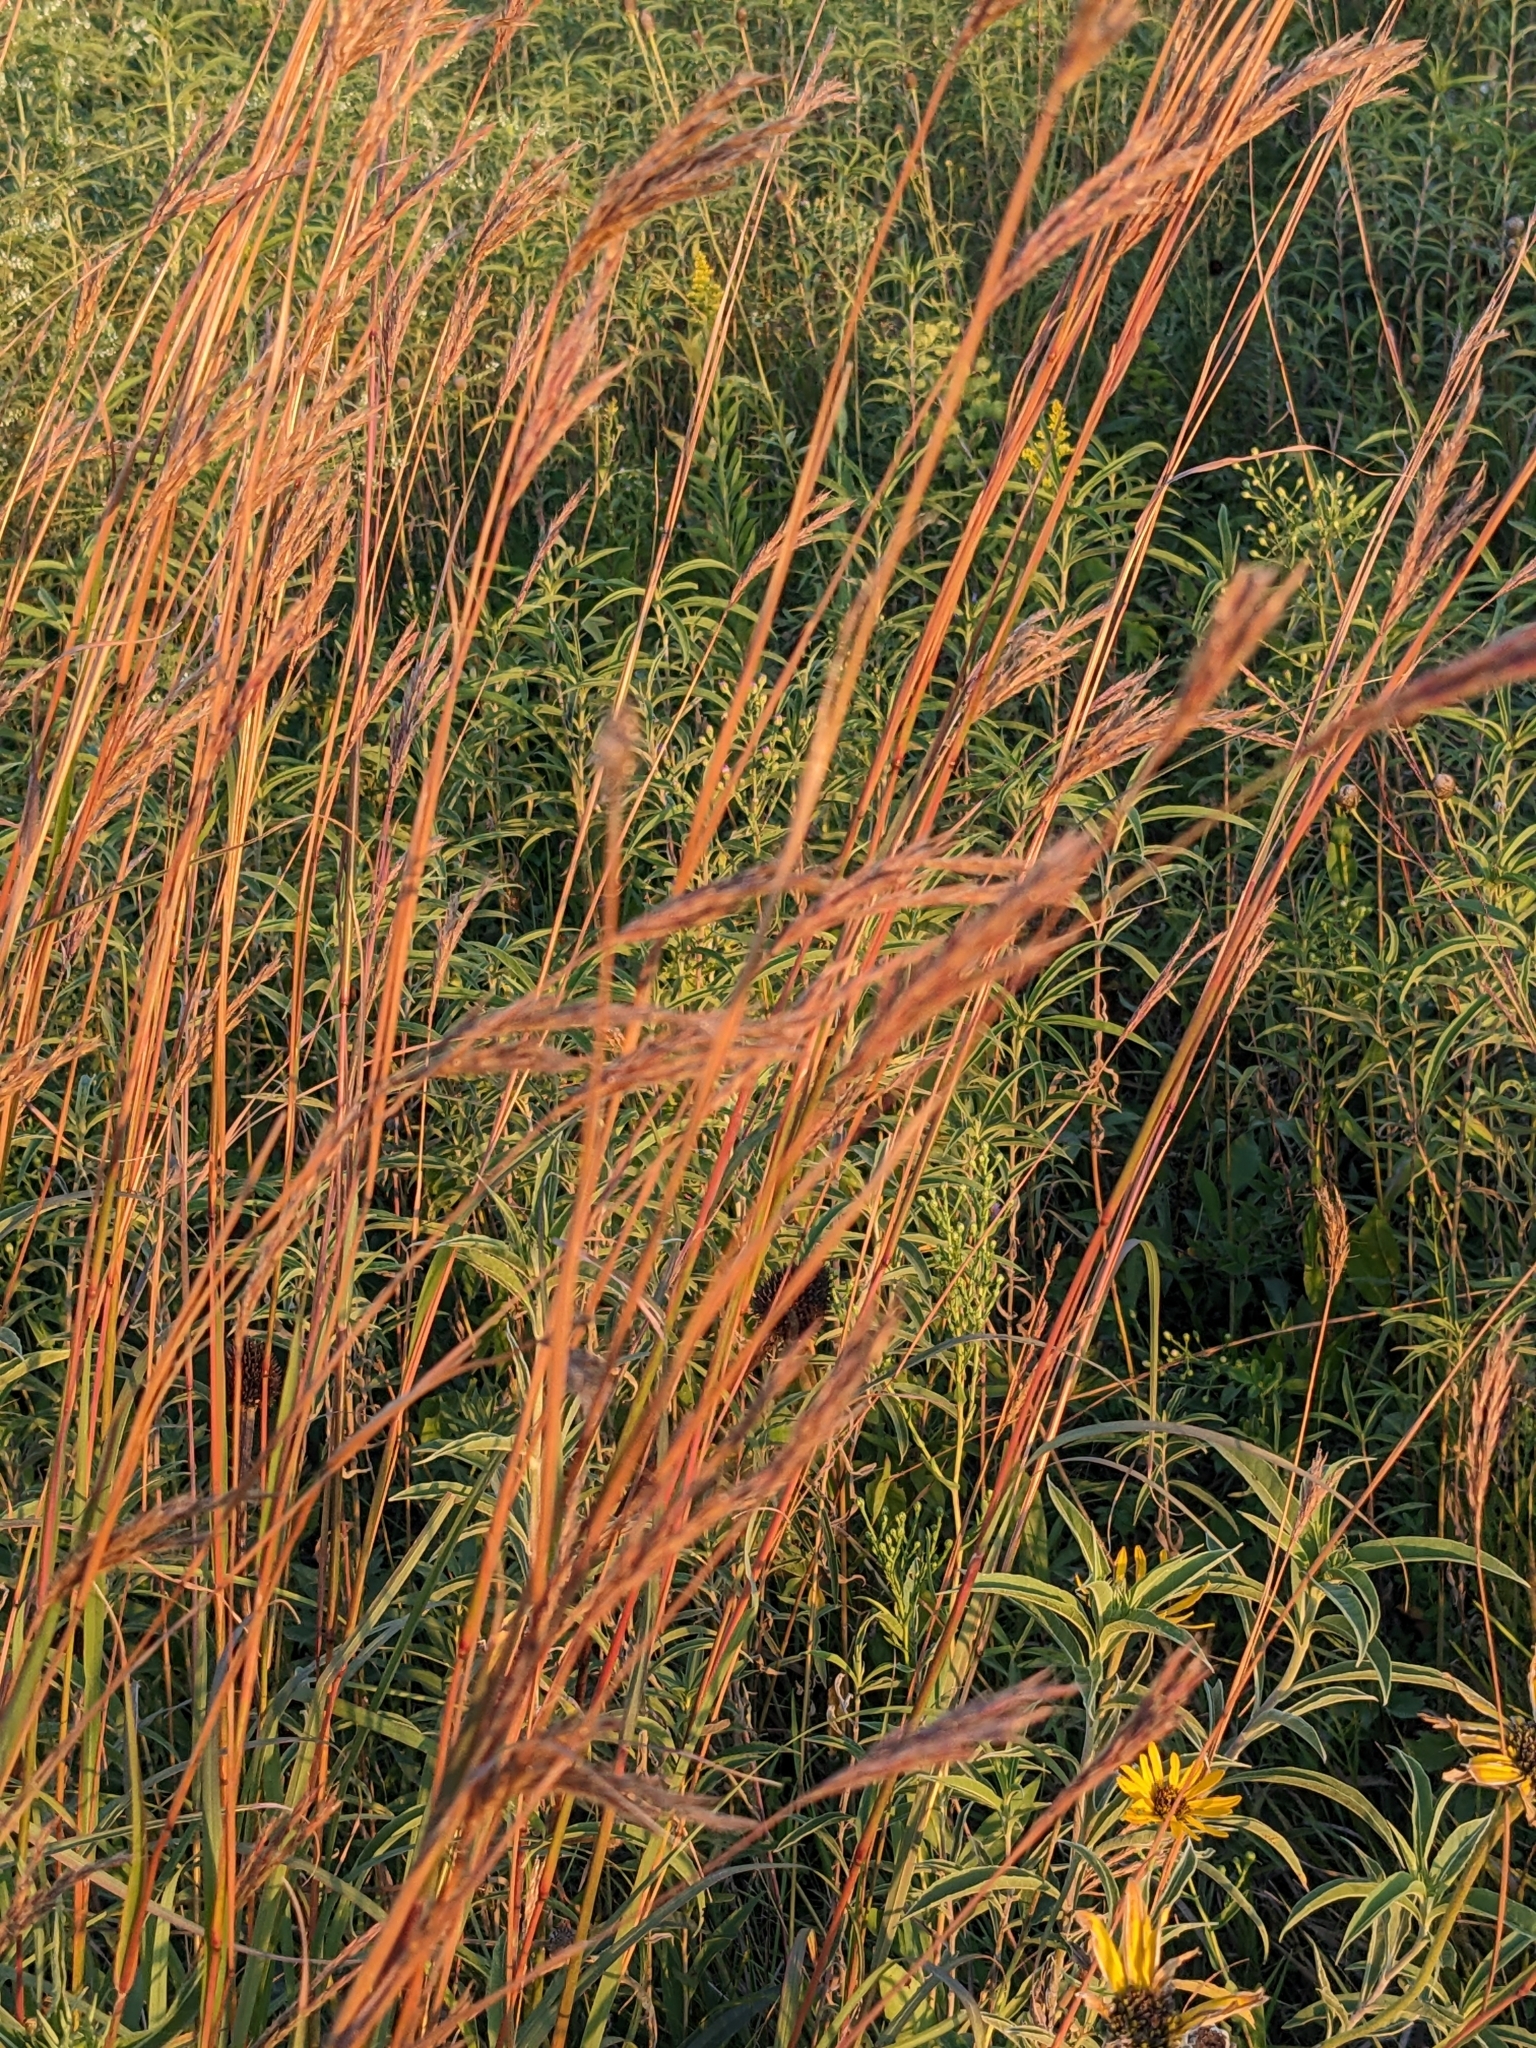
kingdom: Plantae
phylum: Tracheophyta
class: Liliopsida
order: Poales
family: Poaceae
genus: Andropogon
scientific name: Andropogon gerardi
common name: Big bluestem
